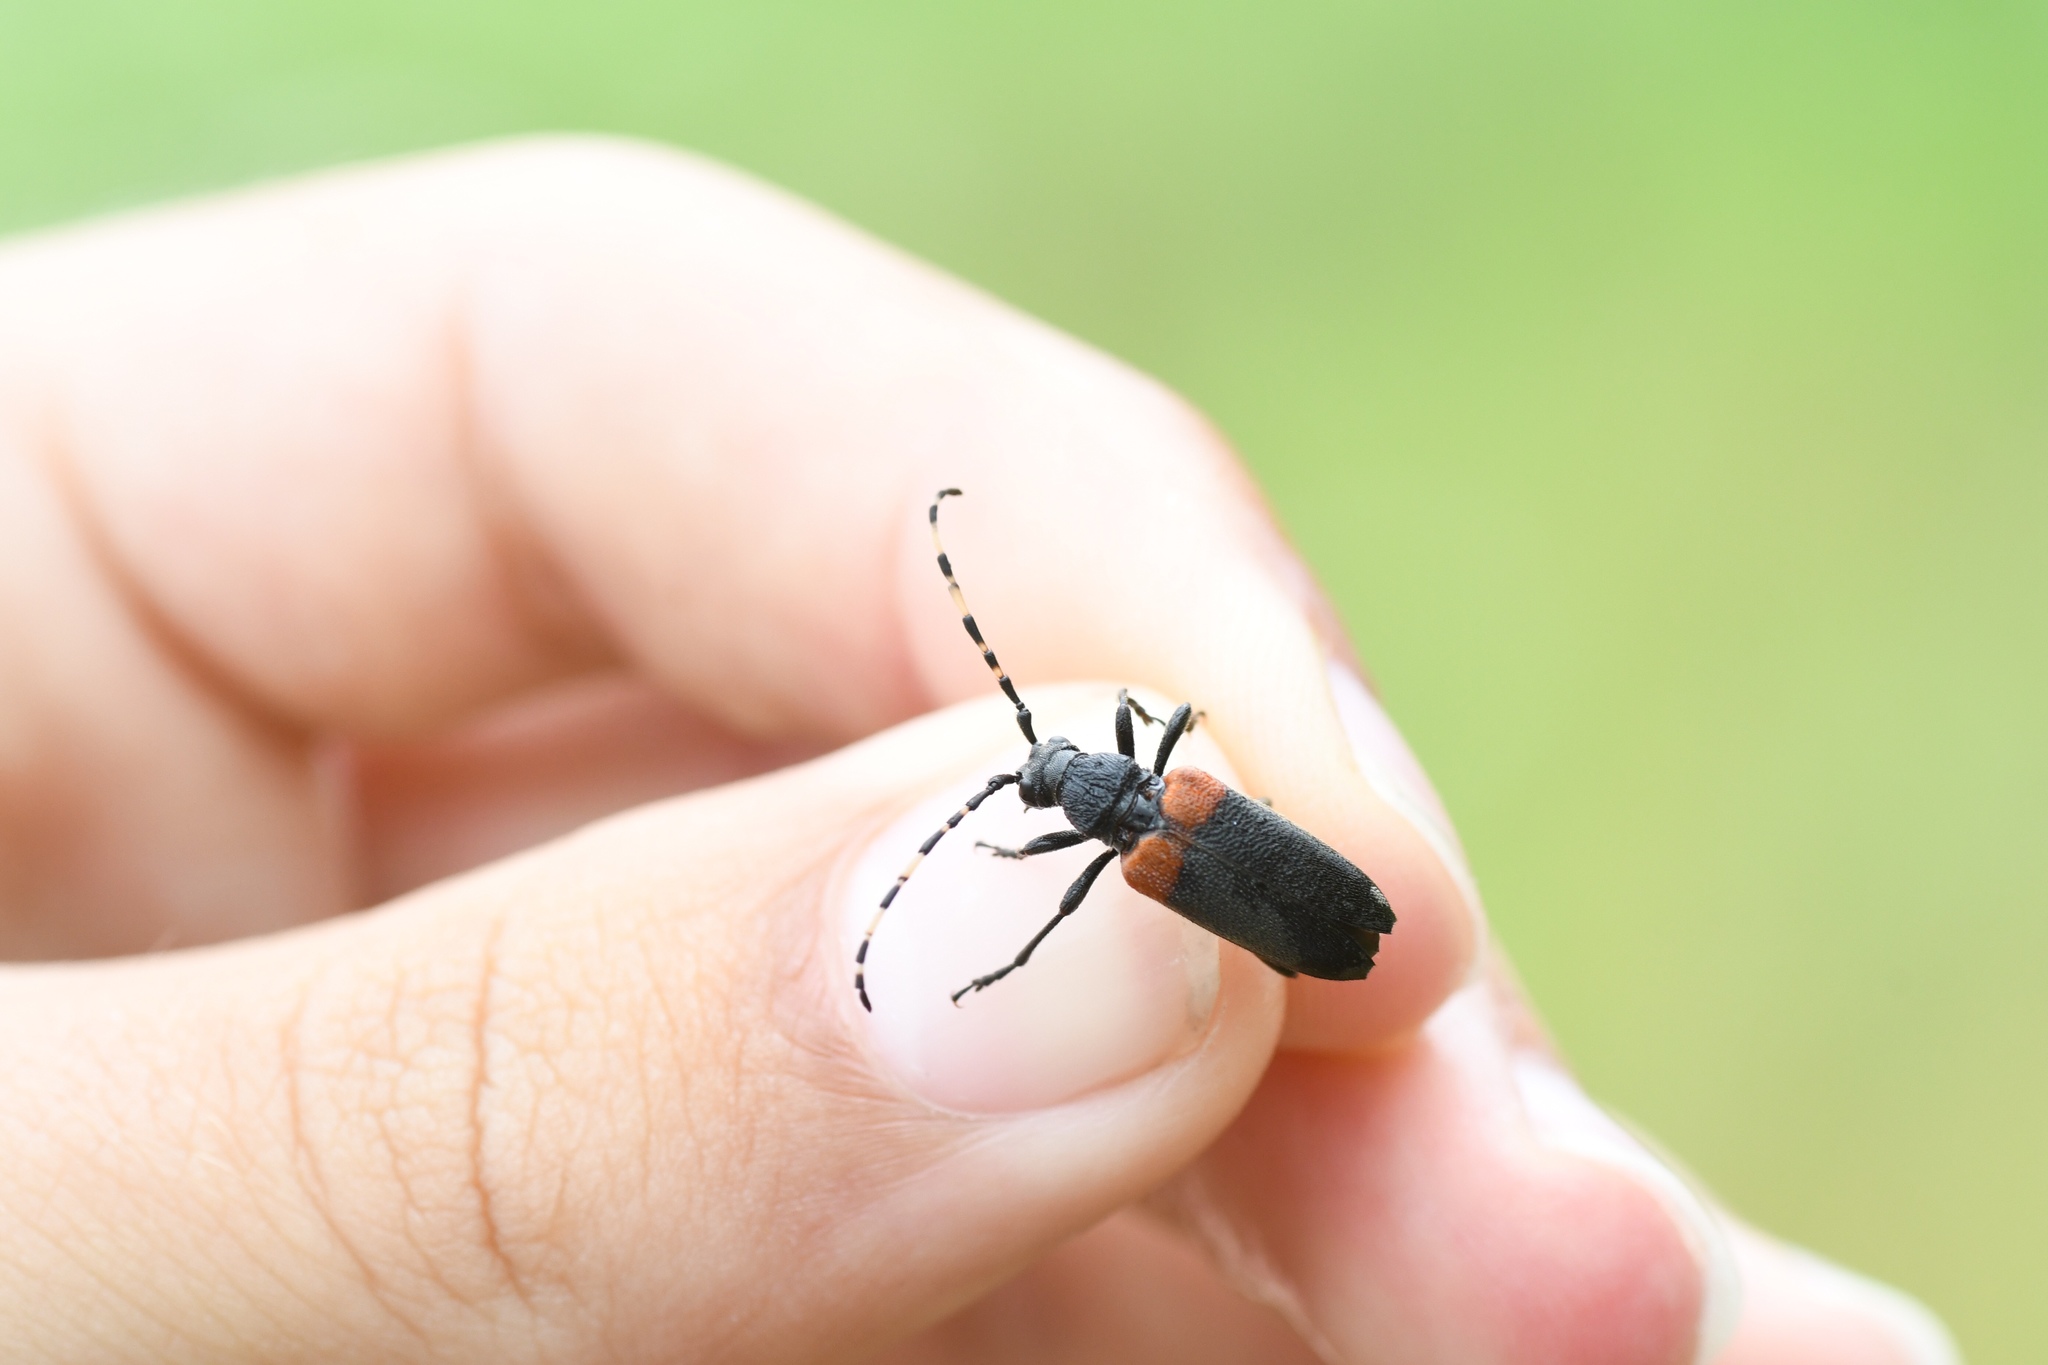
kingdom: Animalia
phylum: Arthropoda
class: Insecta
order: Coleoptera
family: Cerambycidae
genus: Stictoleptura
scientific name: Stictoleptura canadensis
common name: Red-shouldered pine borer
